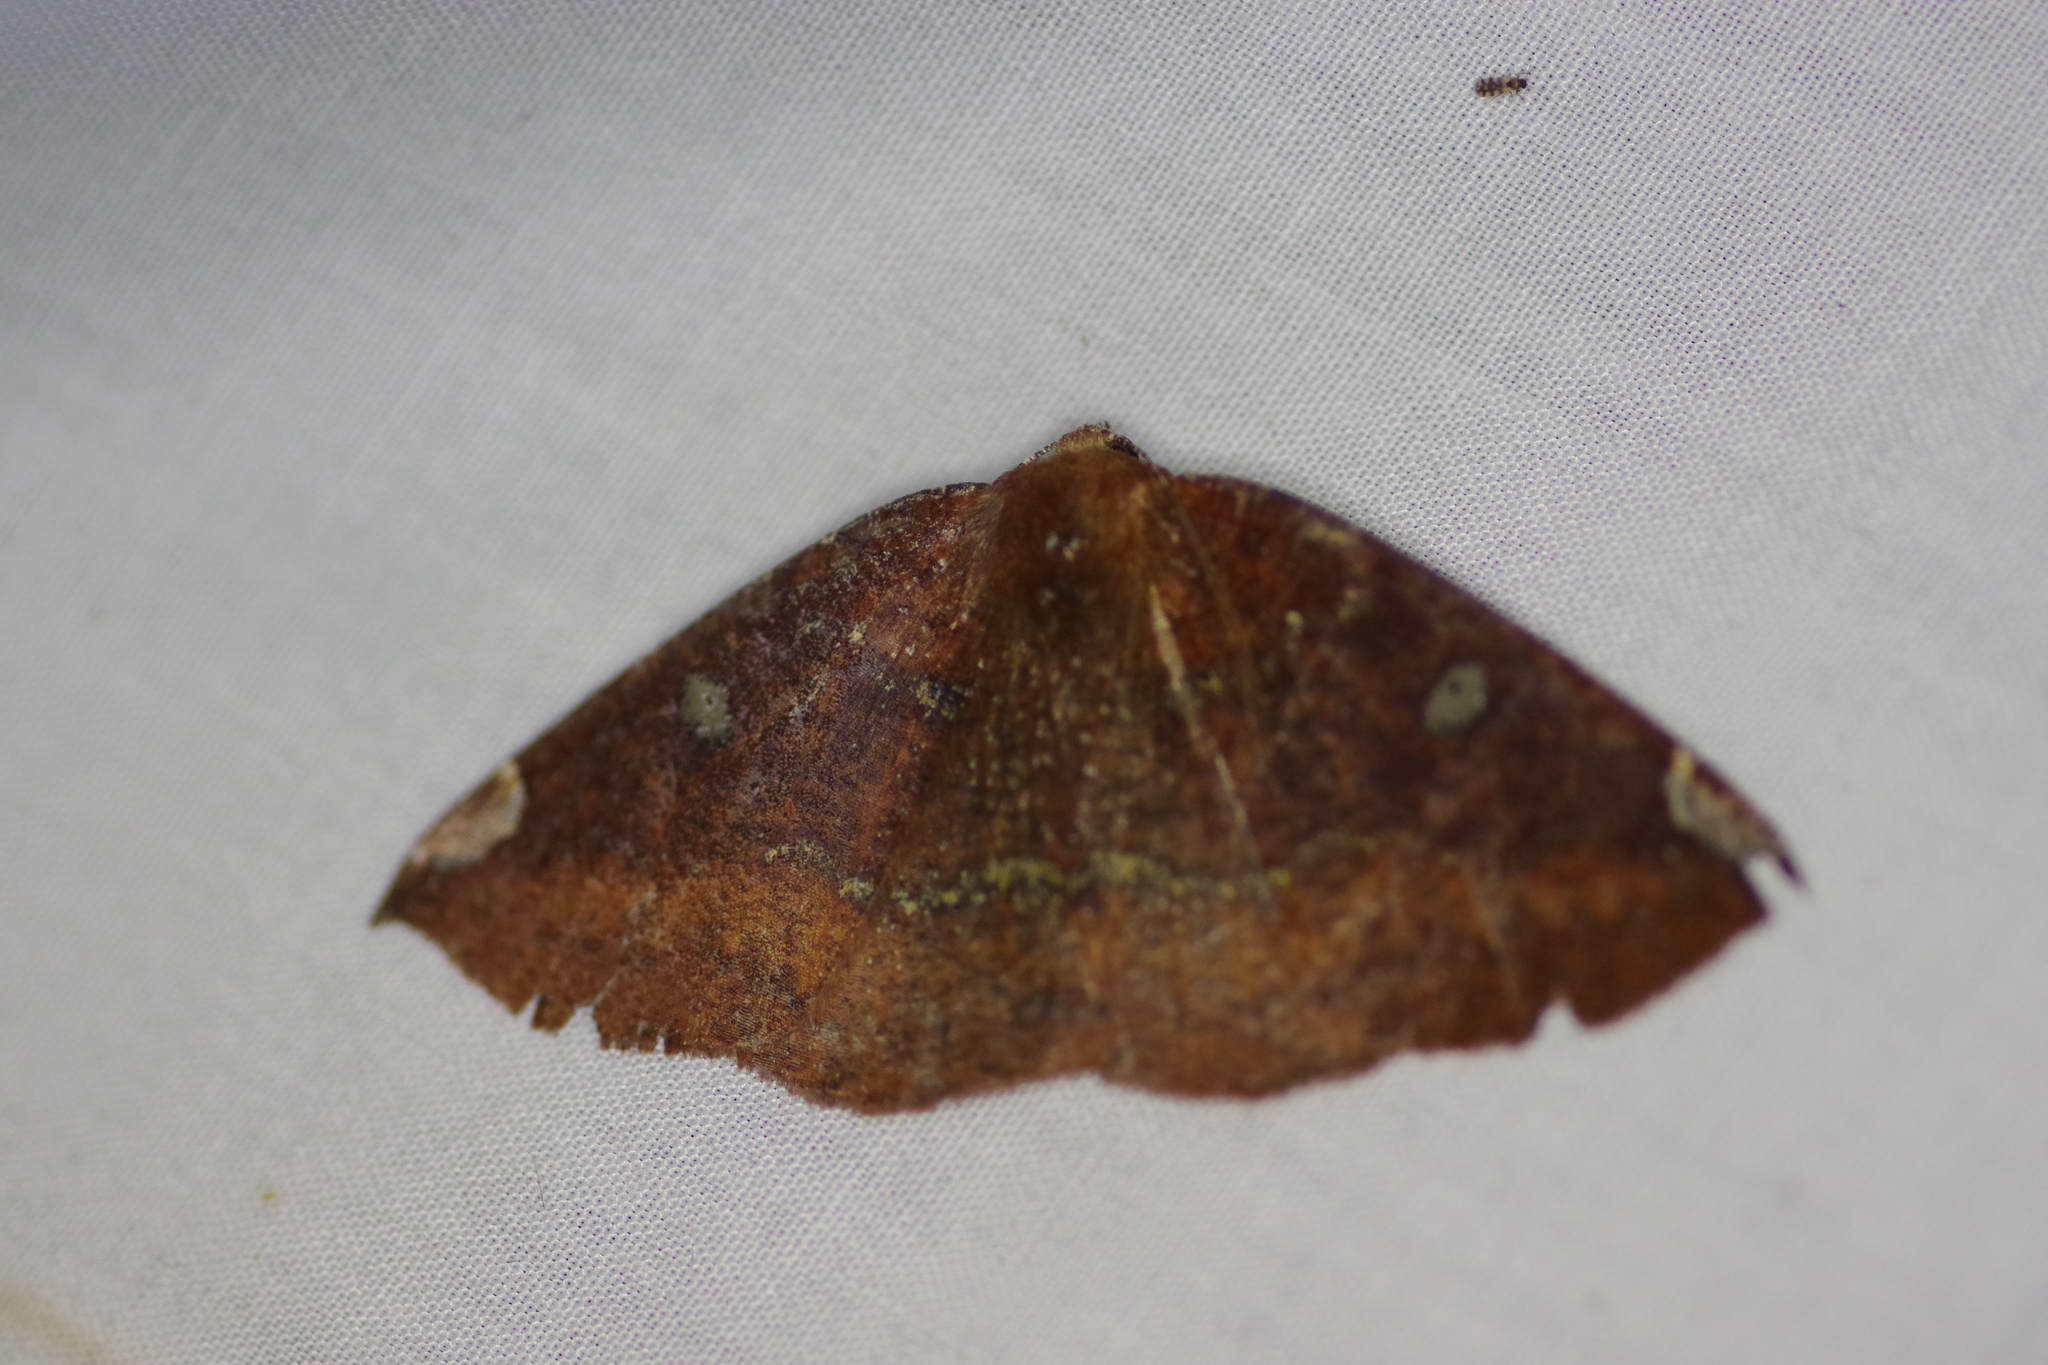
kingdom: Animalia
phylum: Arthropoda
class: Insecta
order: Lepidoptera
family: Geometridae
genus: Herbita
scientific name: Herbita amicaria
